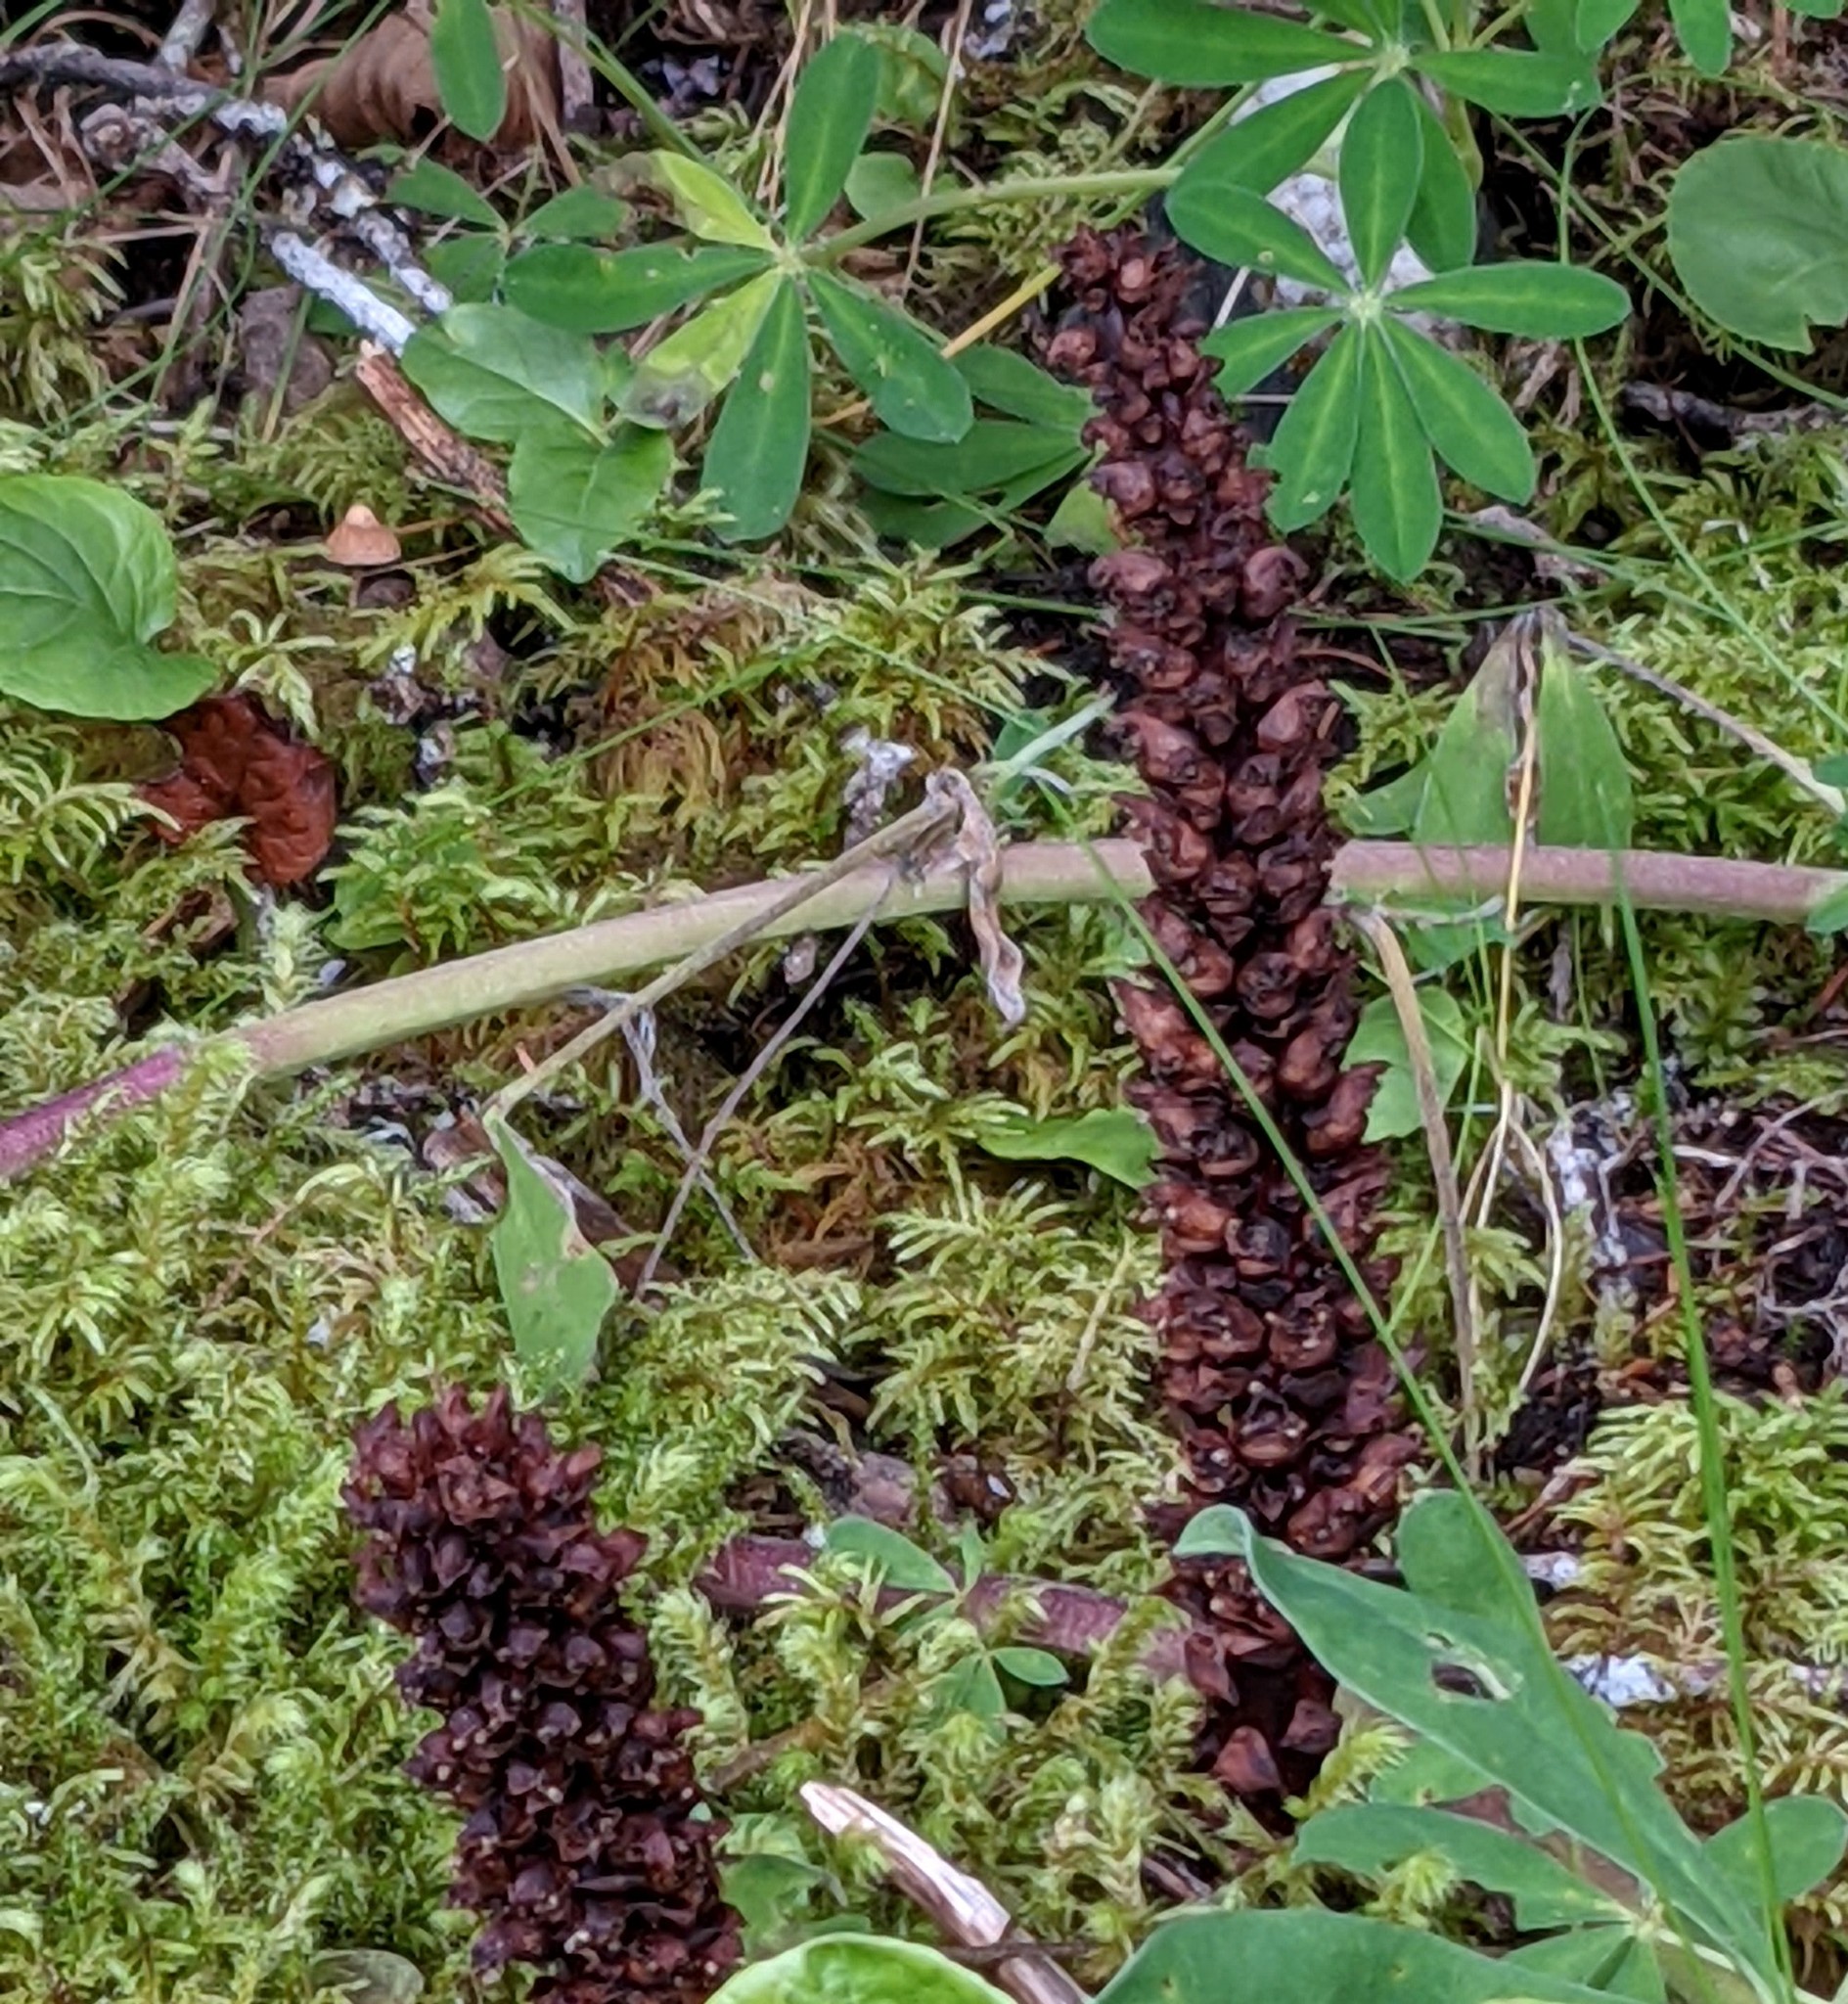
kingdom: Plantae
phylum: Tracheophyta
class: Magnoliopsida
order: Lamiales
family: Orobanchaceae
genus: Boschniakia
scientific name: Boschniakia rossica
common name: Poque
